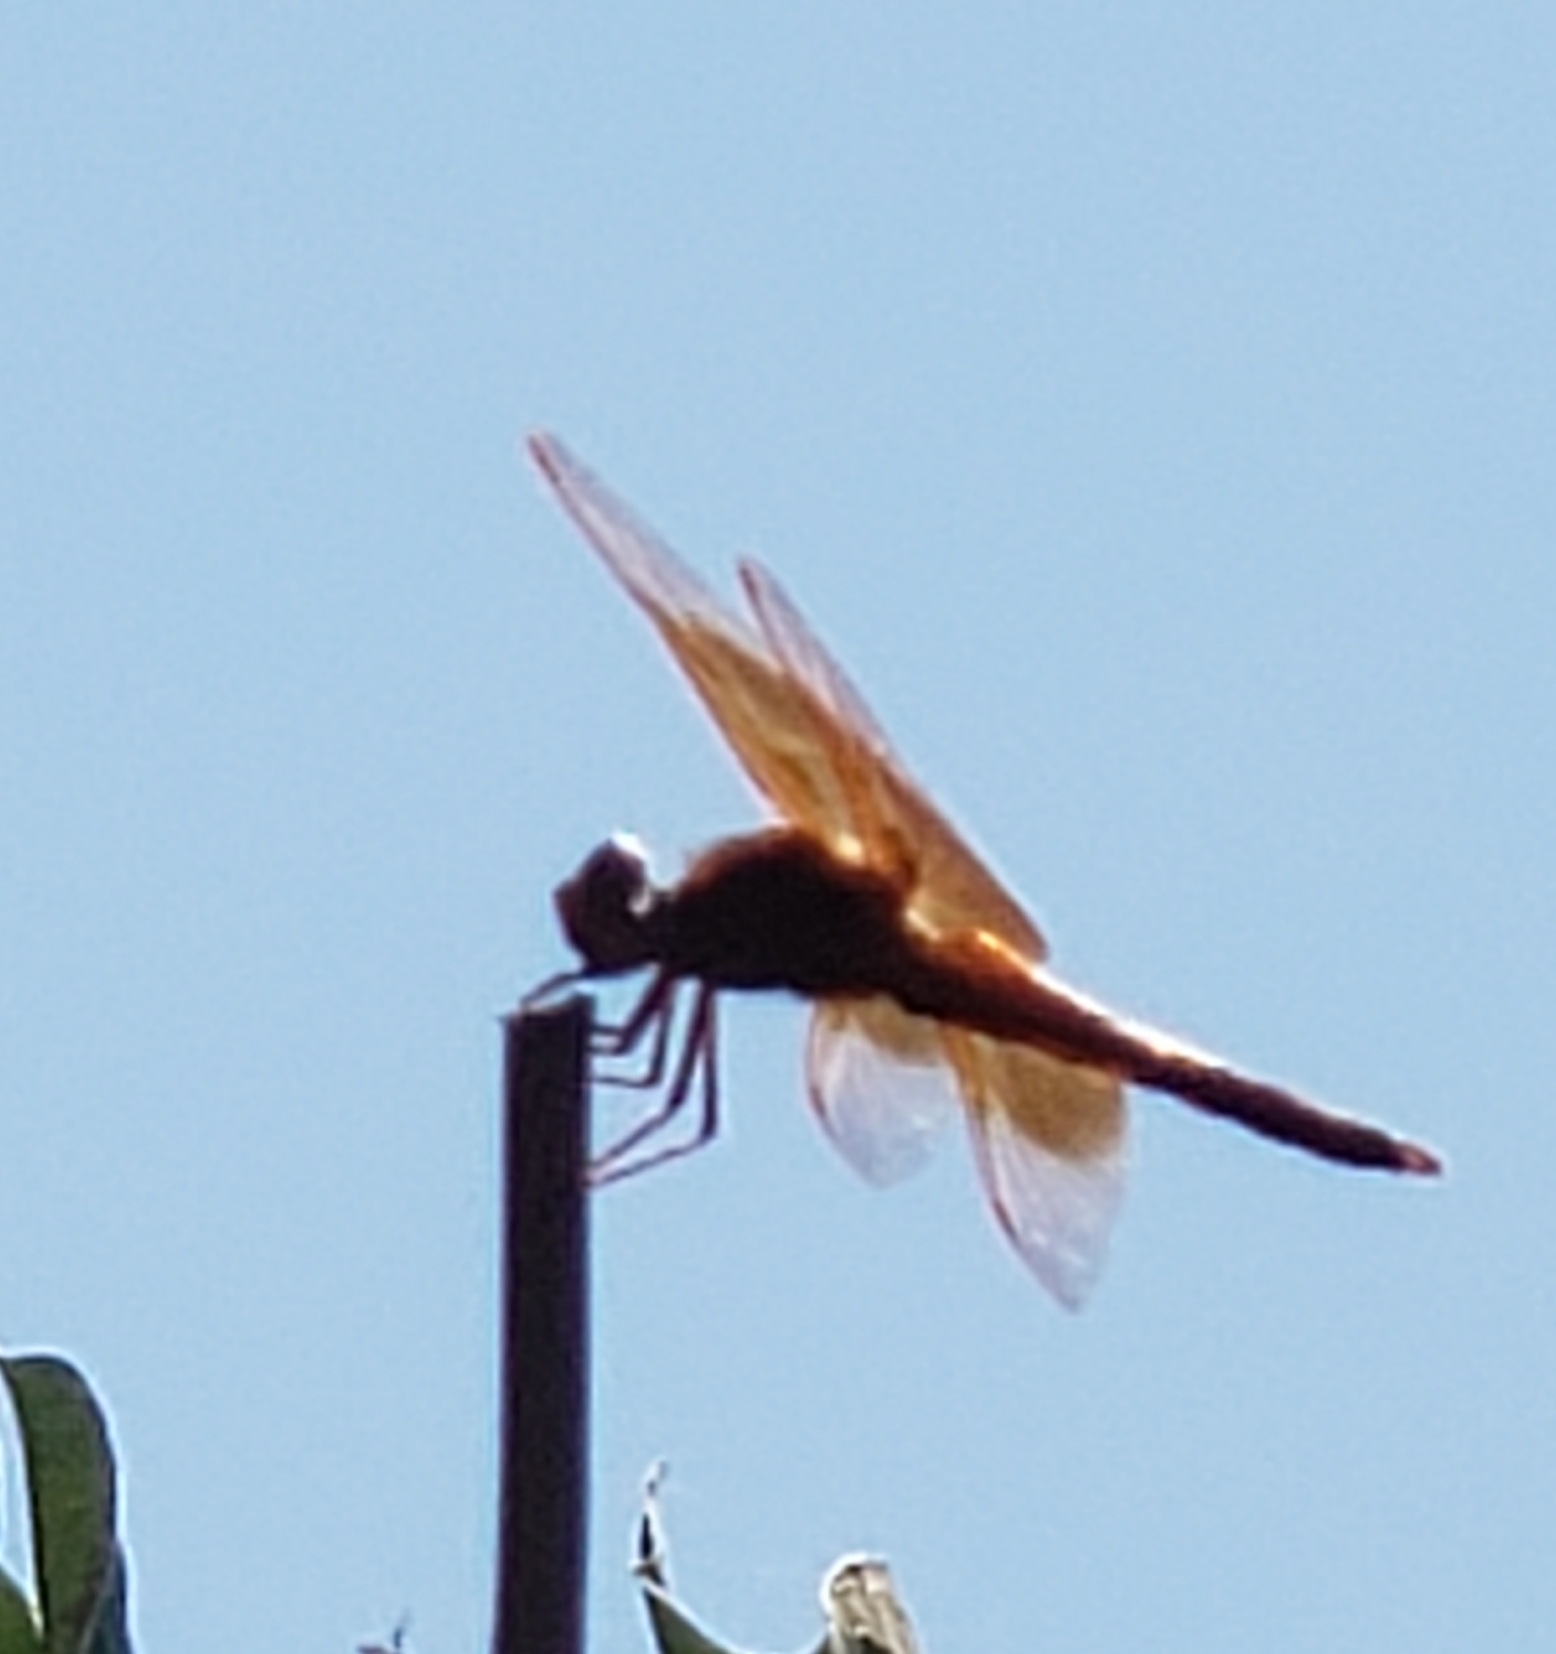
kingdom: Animalia
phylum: Arthropoda
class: Insecta
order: Odonata
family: Libellulidae
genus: Libellula
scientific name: Libellula saturata
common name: Flame skimmer
